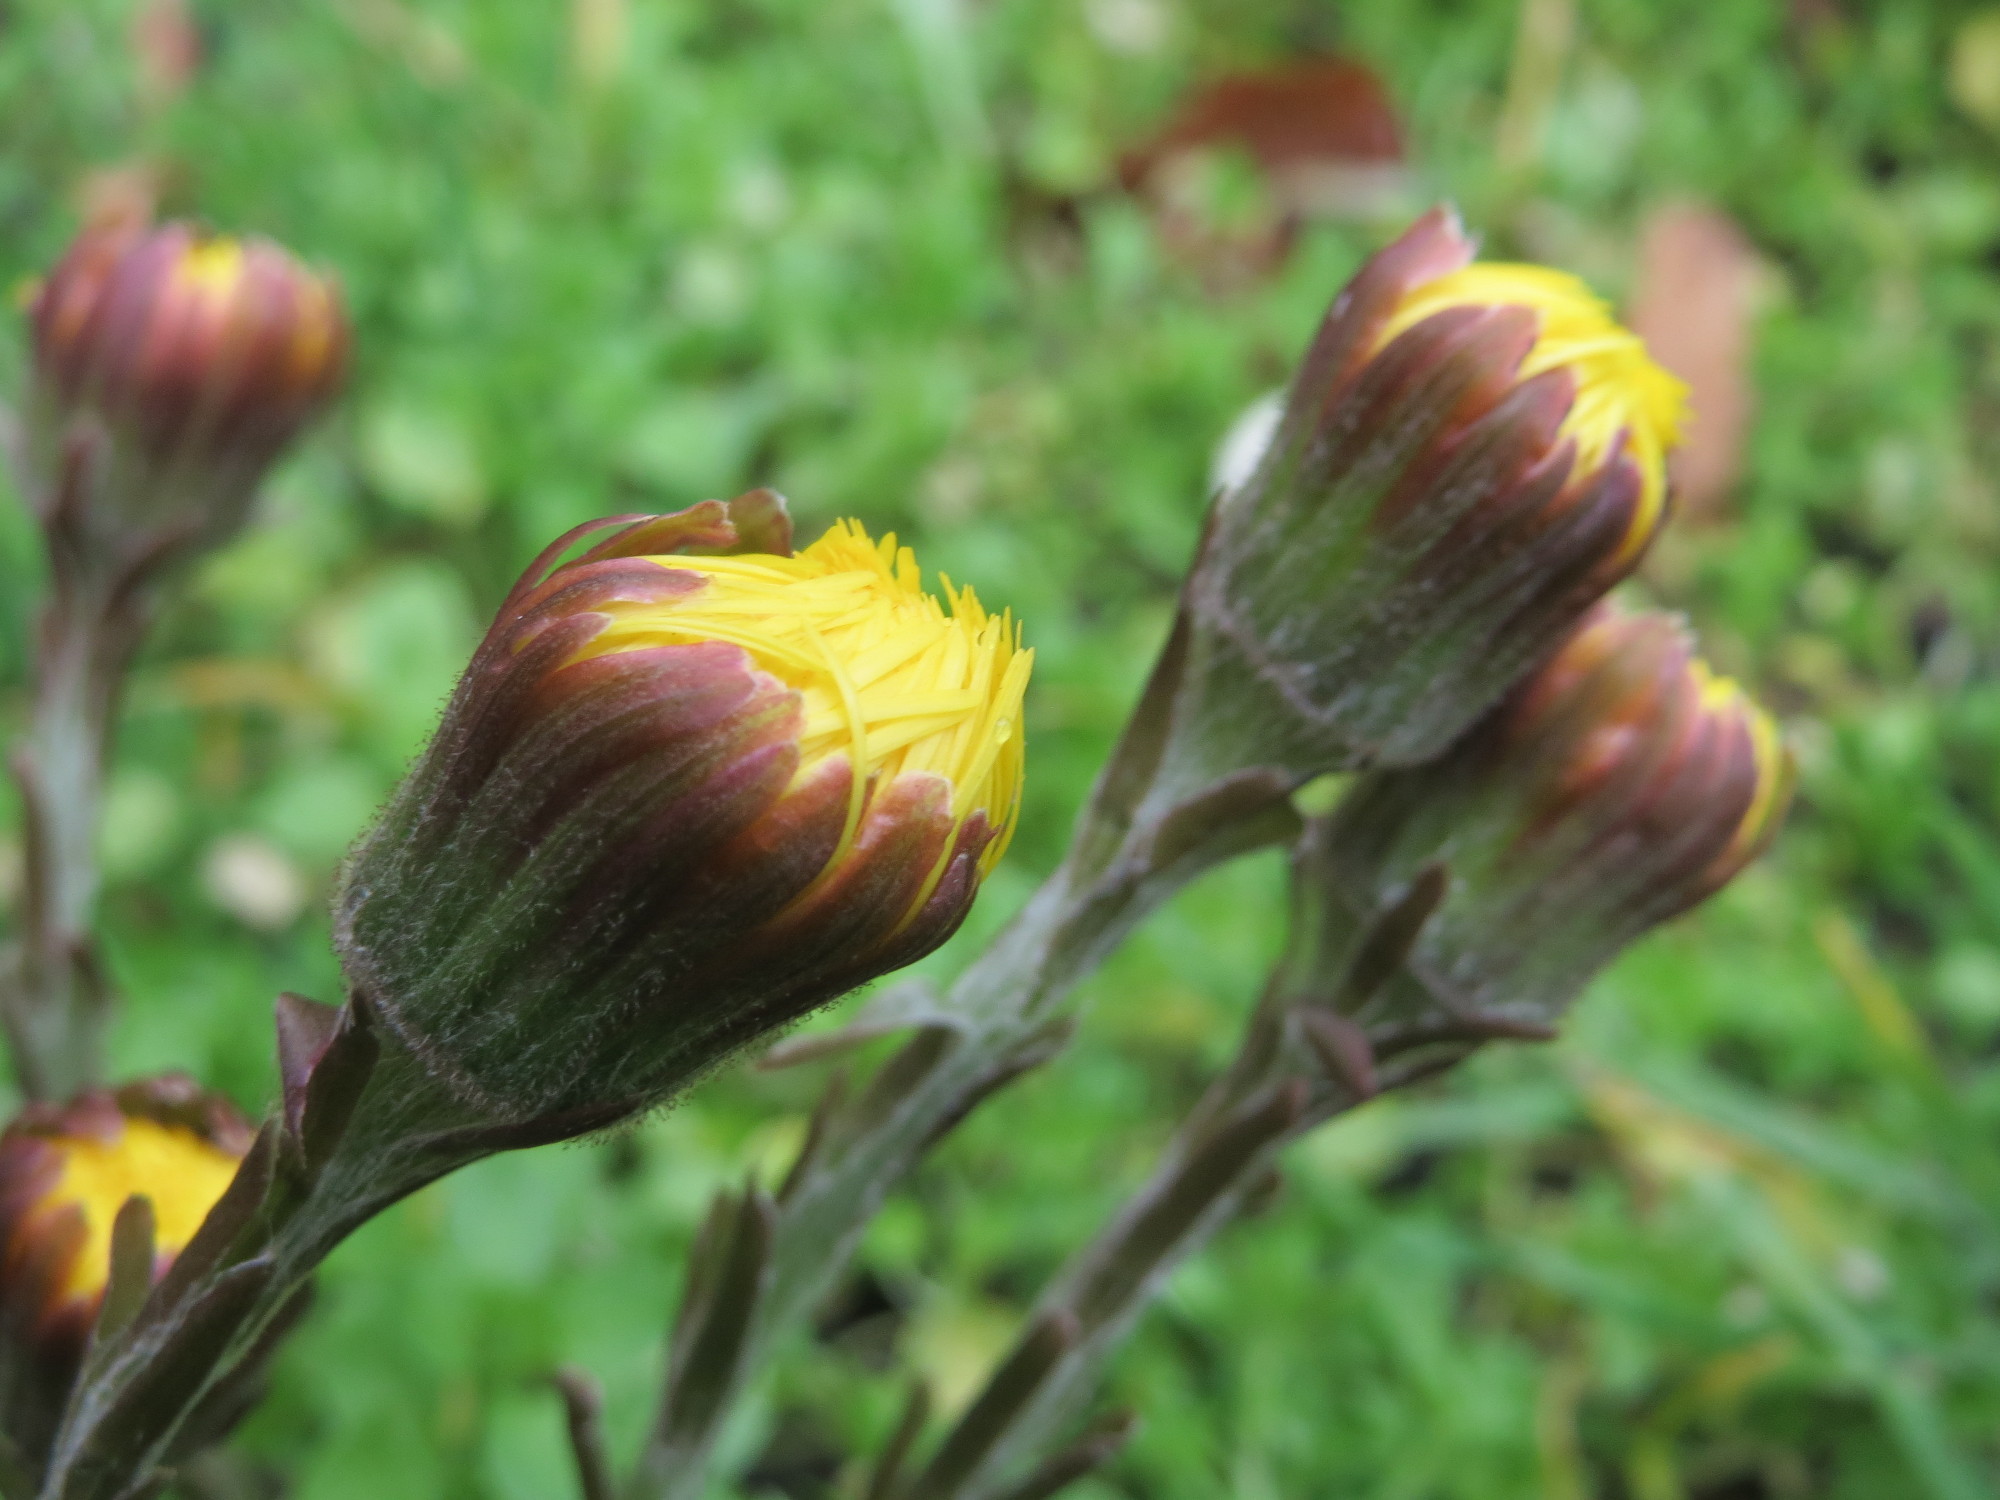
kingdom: Plantae
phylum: Tracheophyta
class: Magnoliopsida
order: Asterales
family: Asteraceae
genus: Tussilago
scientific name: Tussilago farfara
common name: Coltsfoot
